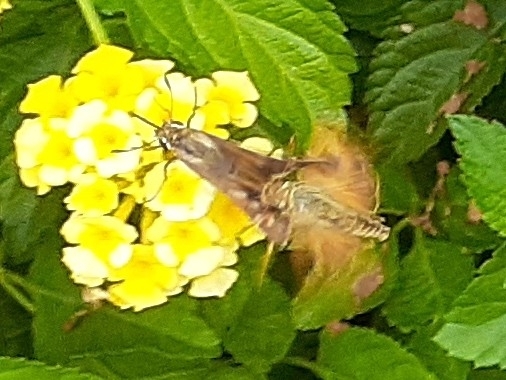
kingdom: Animalia
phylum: Arthropoda
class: Insecta
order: Lepidoptera
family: Hesperiidae
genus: Atalopedes
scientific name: Atalopedes
